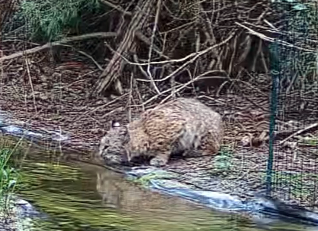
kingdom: Animalia
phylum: Chordata
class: Mammalia
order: Carnivora
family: Felidae
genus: Lynx
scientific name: Lynx rufus
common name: Bobcat
